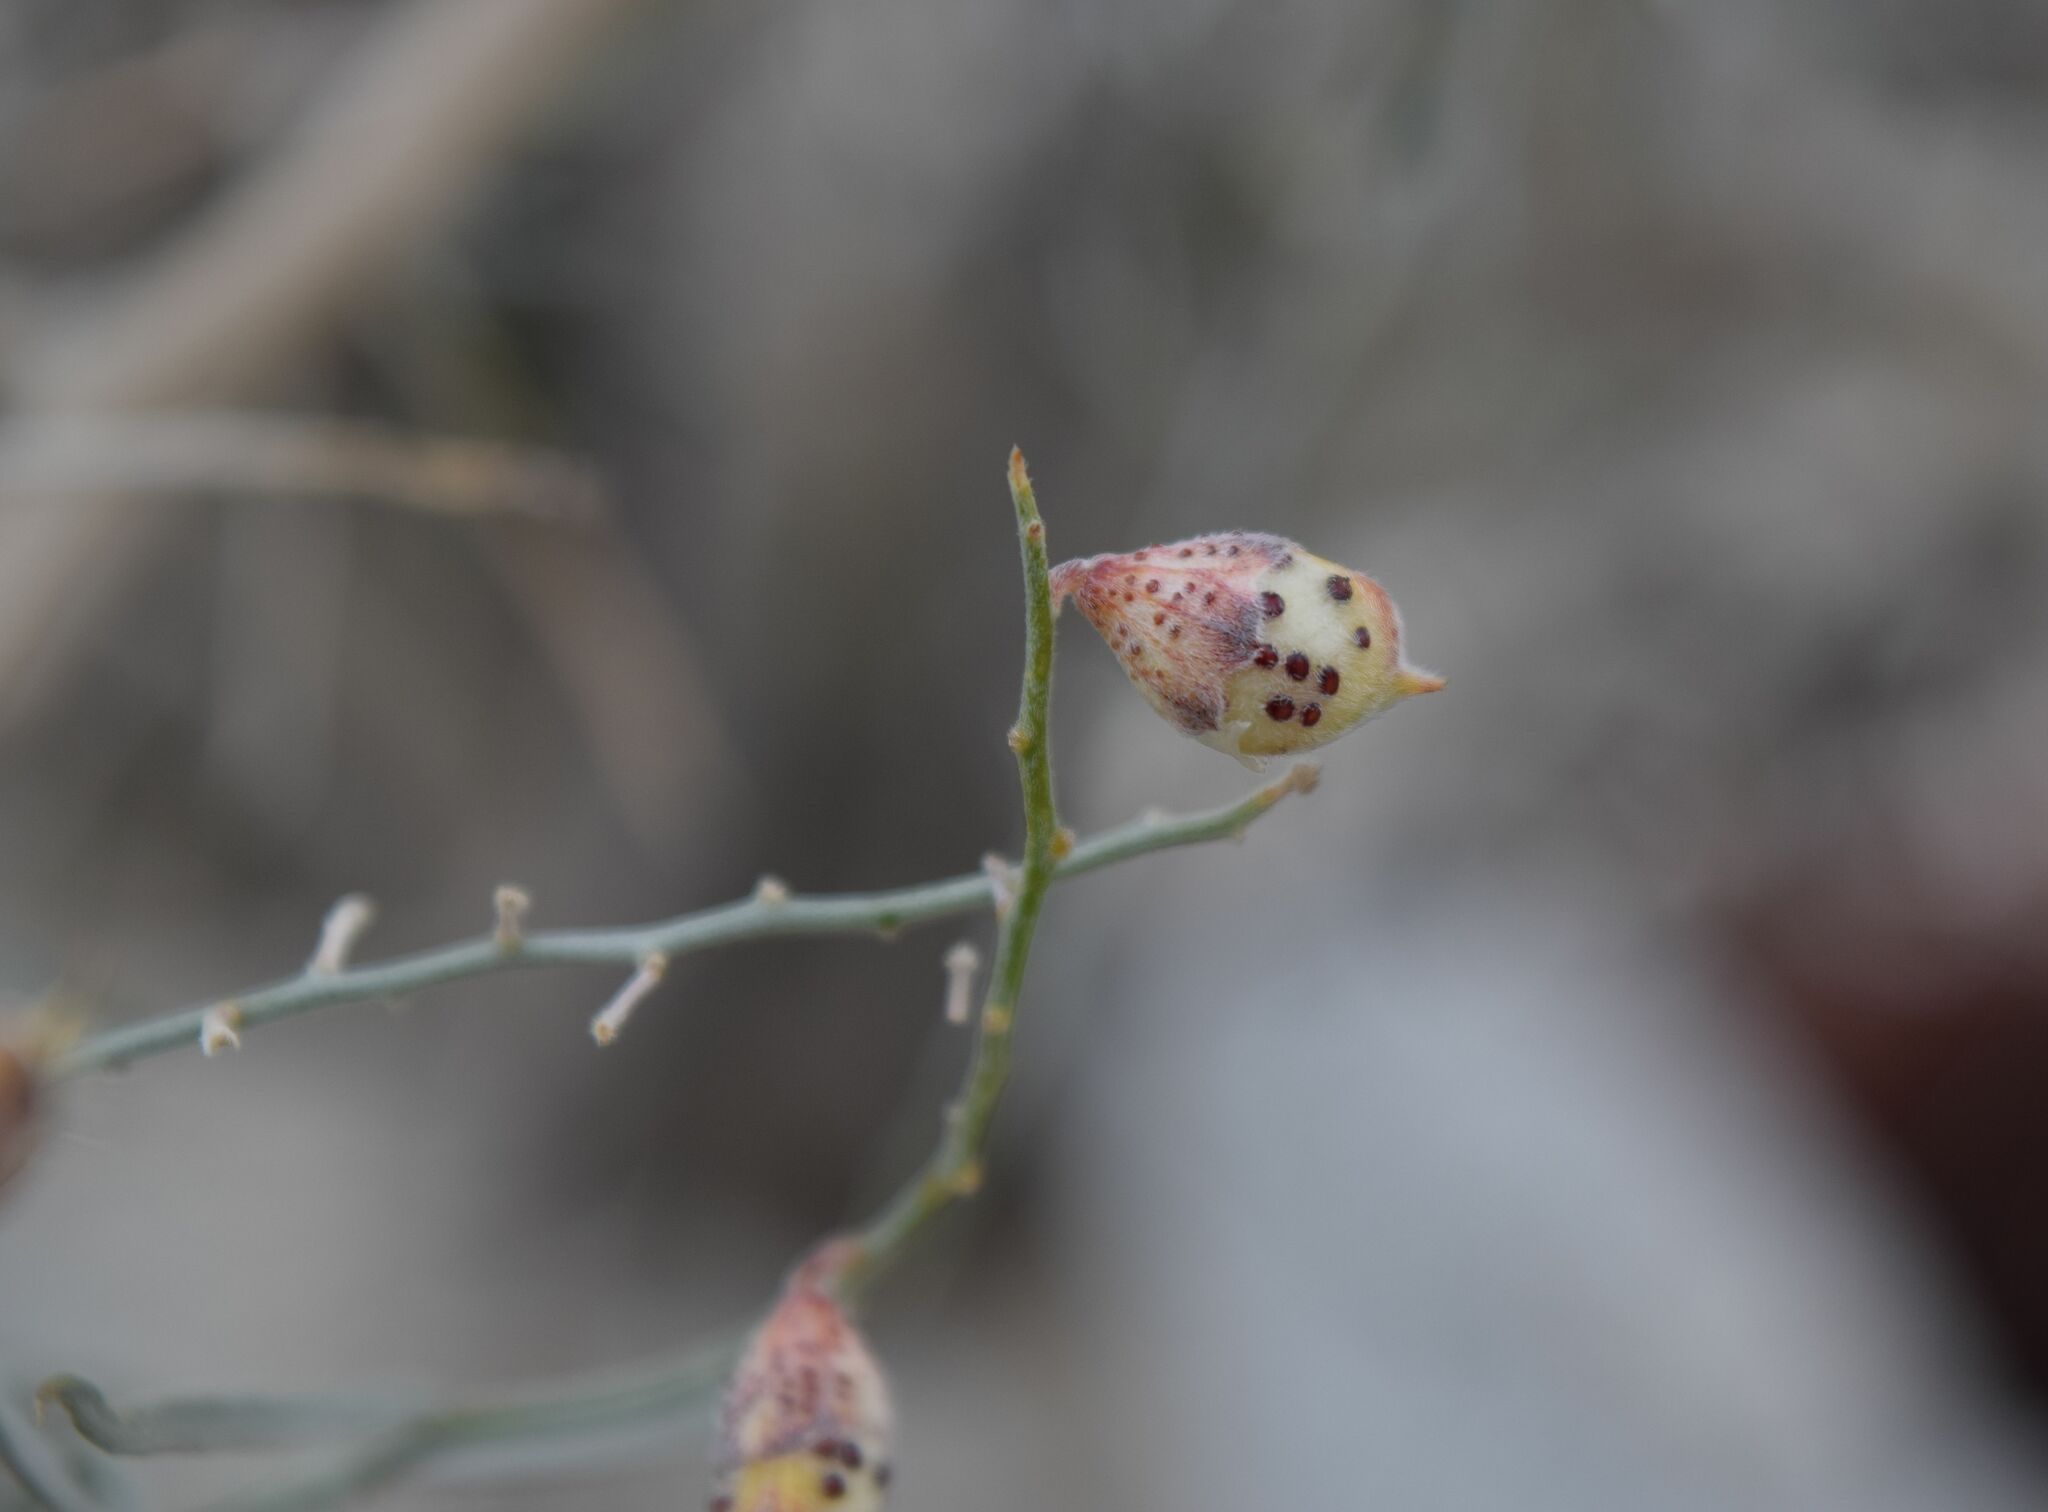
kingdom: Plantae
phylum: Tracheophyta
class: Magnoliopsida
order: Fabales
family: Fabaceae
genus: Psorothamnus
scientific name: Psorothamnus schottii
